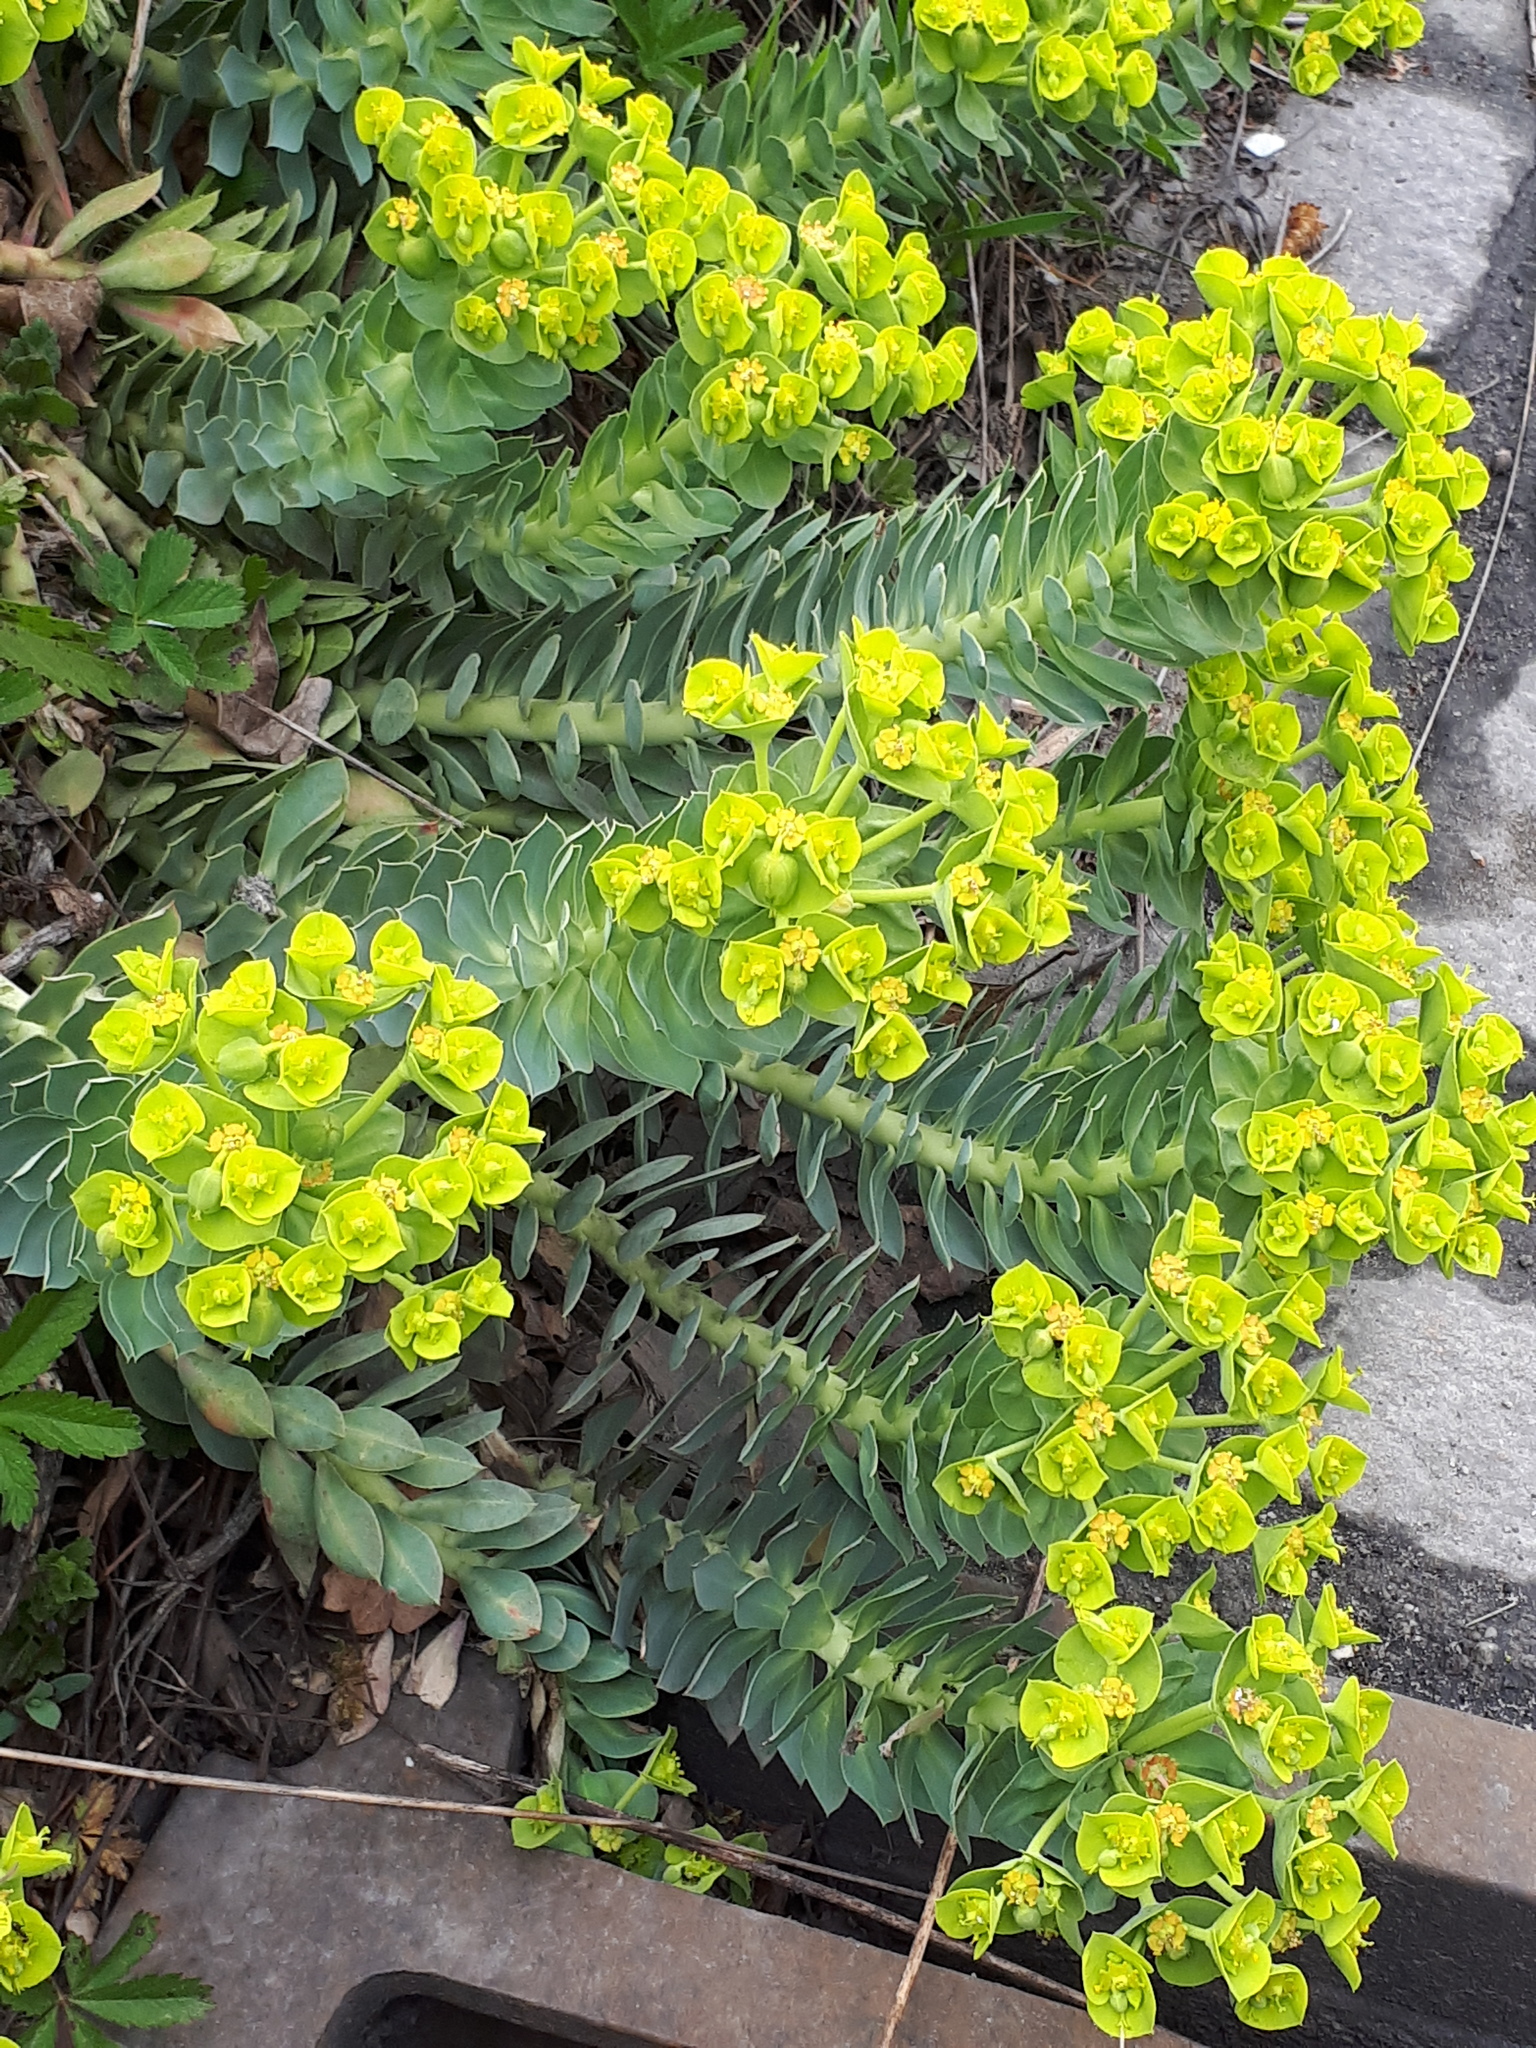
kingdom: Plantae
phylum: Tracheophyta
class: Magnoliopsida
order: Malpighiales
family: Euphorbiaceae
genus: Euphorbia
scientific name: Euphorbia myrsinites
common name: Myrtle spurge
